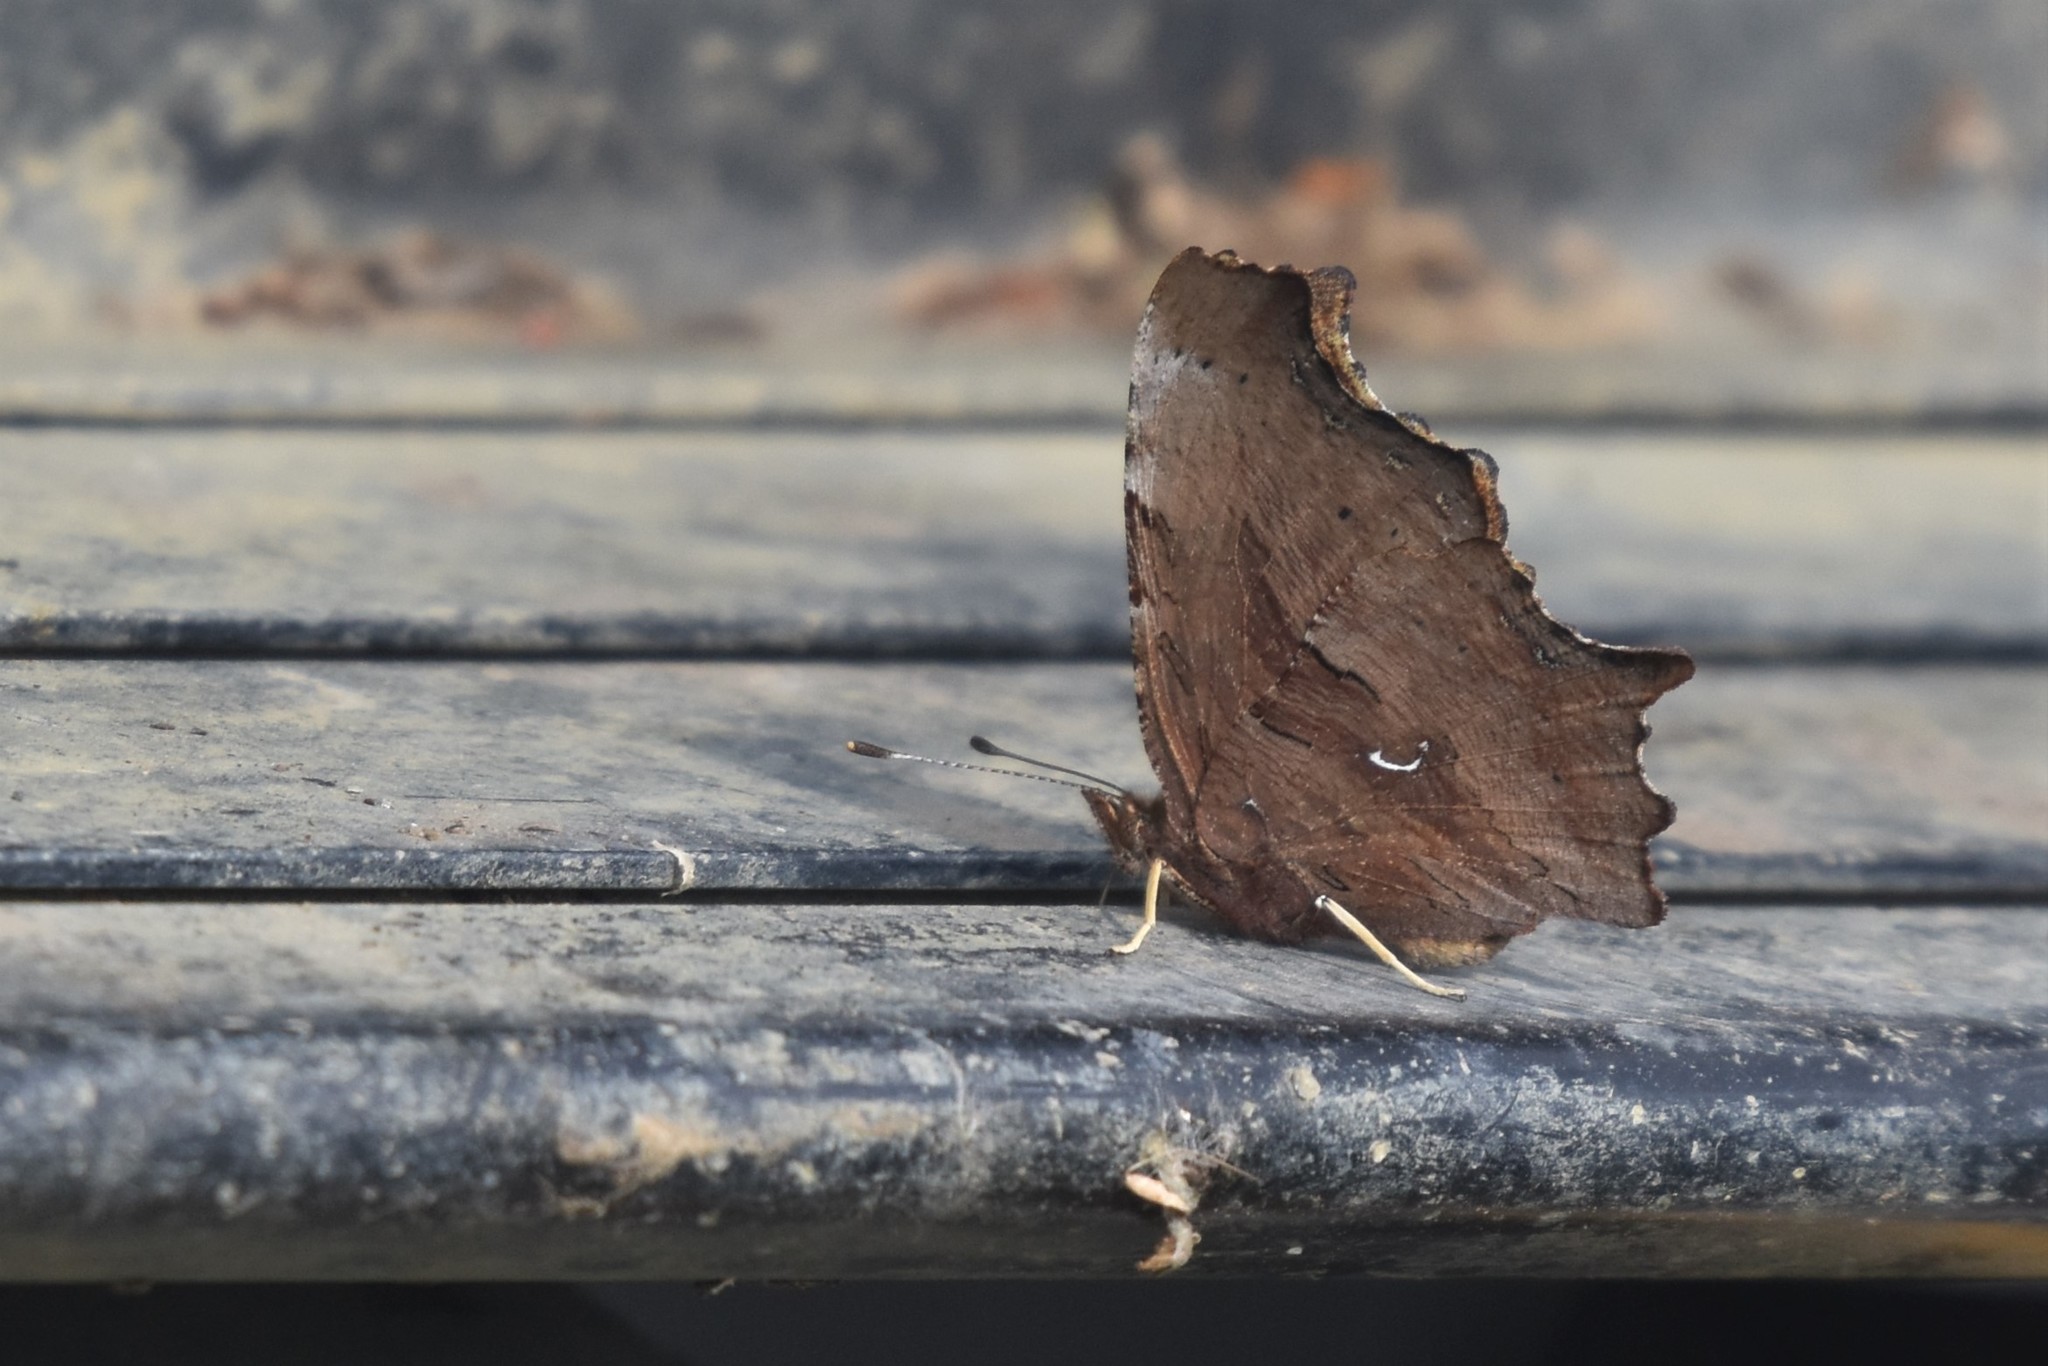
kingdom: Animalia
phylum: Arthropoda
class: Insecta
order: Lepidoptera
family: Nymphalidae
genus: Polygonia
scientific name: Polygonia satyrus
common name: Satyr angle wing
